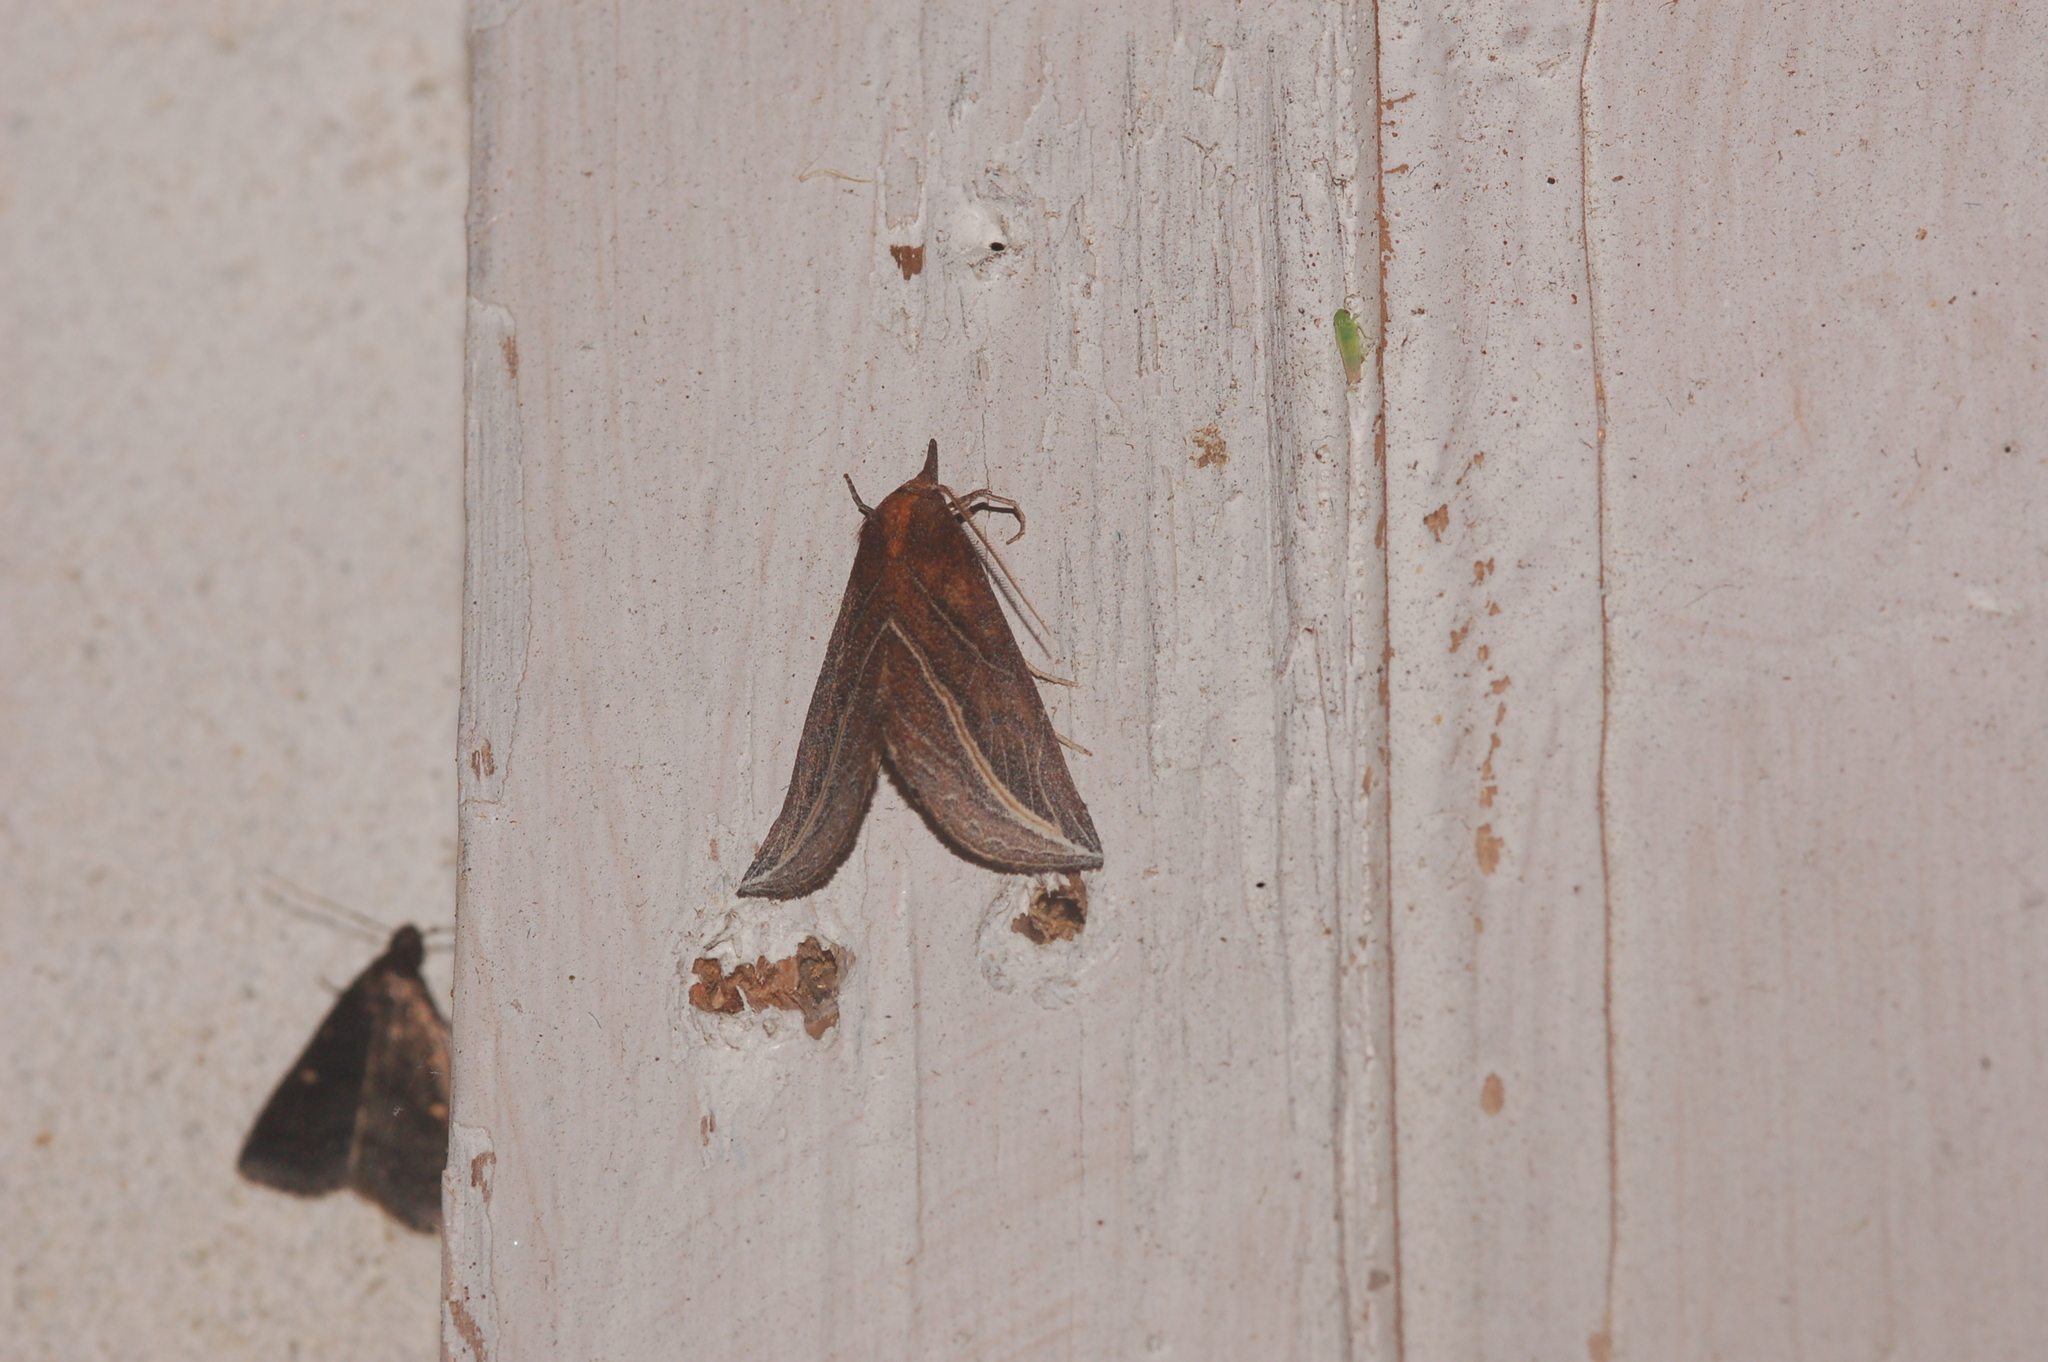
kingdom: Animalia
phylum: Arthropoda
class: Insecta
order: Lepidoptera
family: Erebidae
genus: Phyprosopus
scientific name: Phyprosopus callitrichoides
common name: Curved-lined owlet
